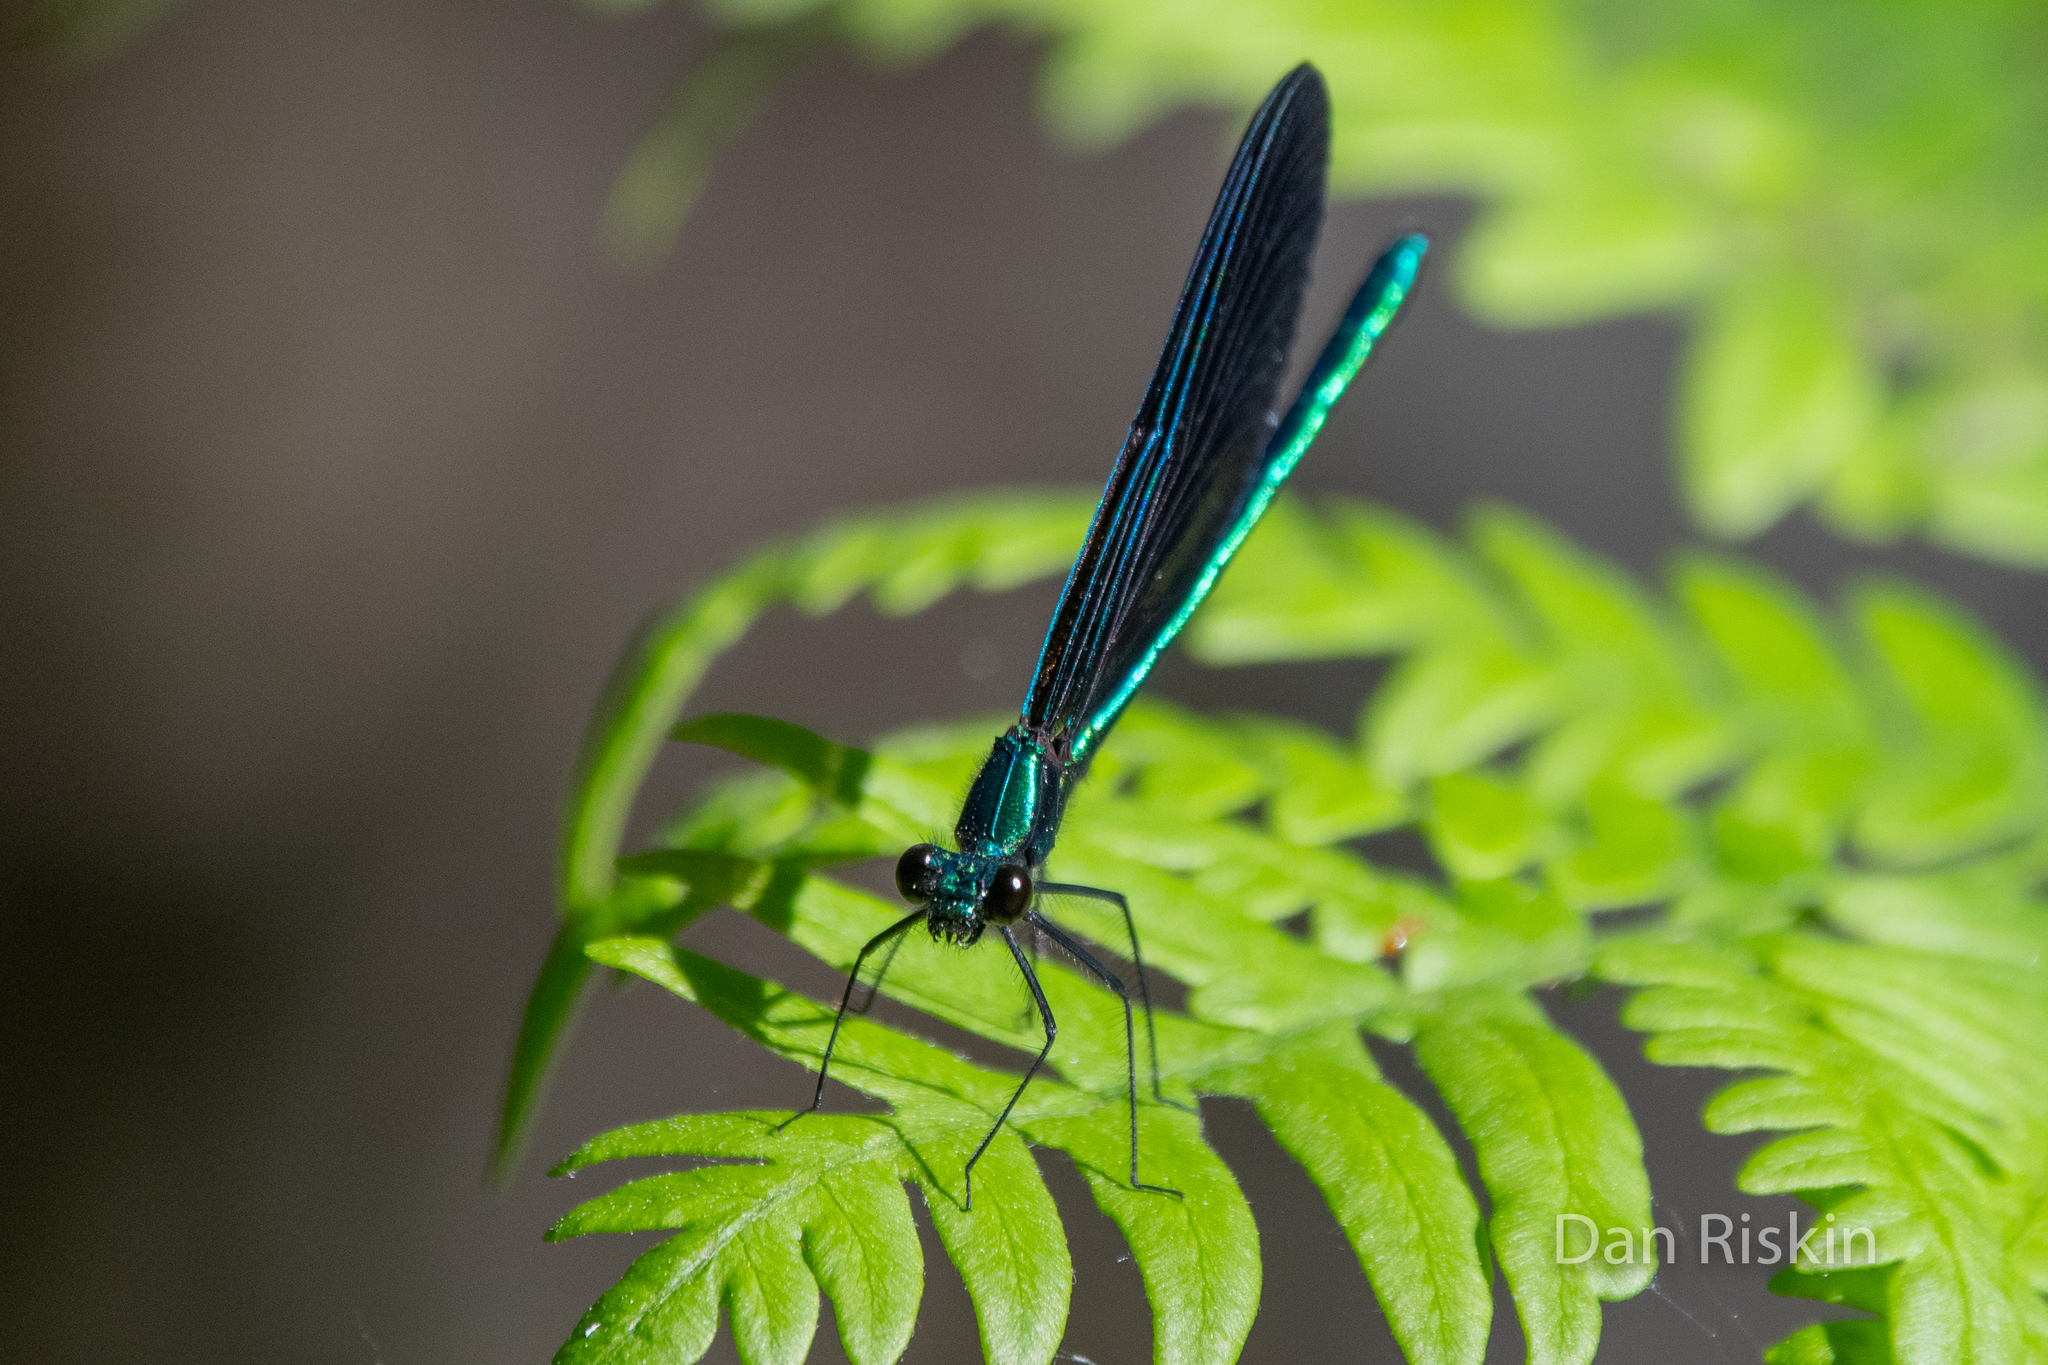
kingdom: Animalia
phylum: Arthropoda
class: Insecta
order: Odonata
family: Calopterygidae
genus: Calopteryx
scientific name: Calopteryx maculata
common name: Ebony jewelwing
